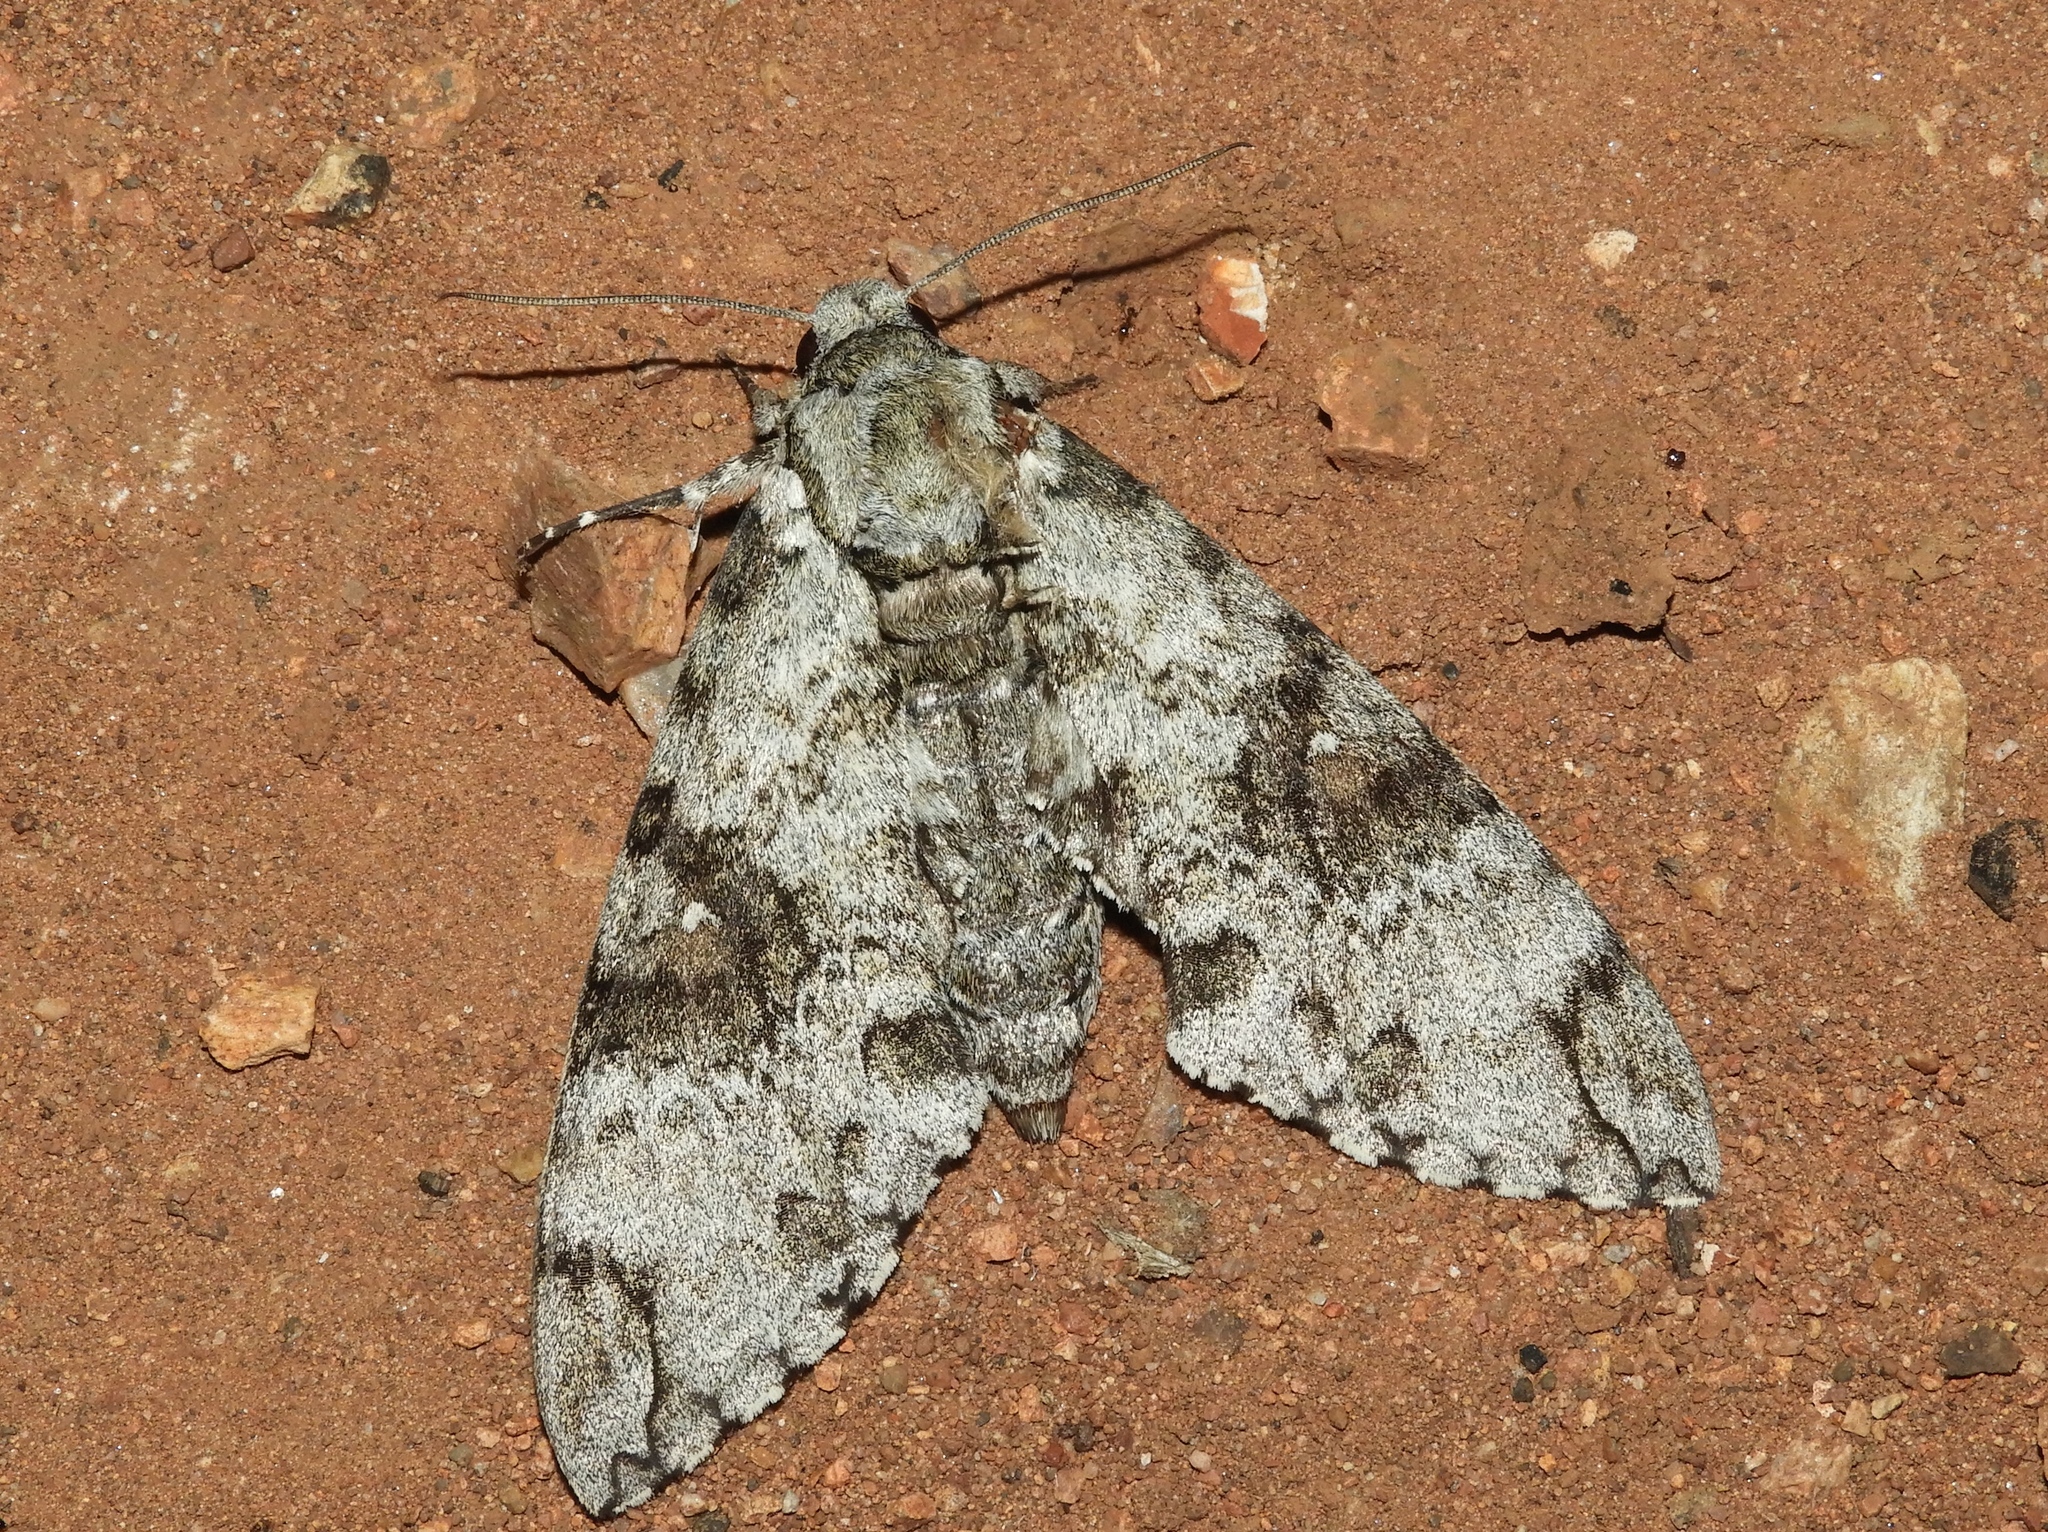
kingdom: Animalia
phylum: Arthropoda
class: Insecta
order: Lepidoptera
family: Sphingidae
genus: Manduca
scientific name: Manduca florestan
